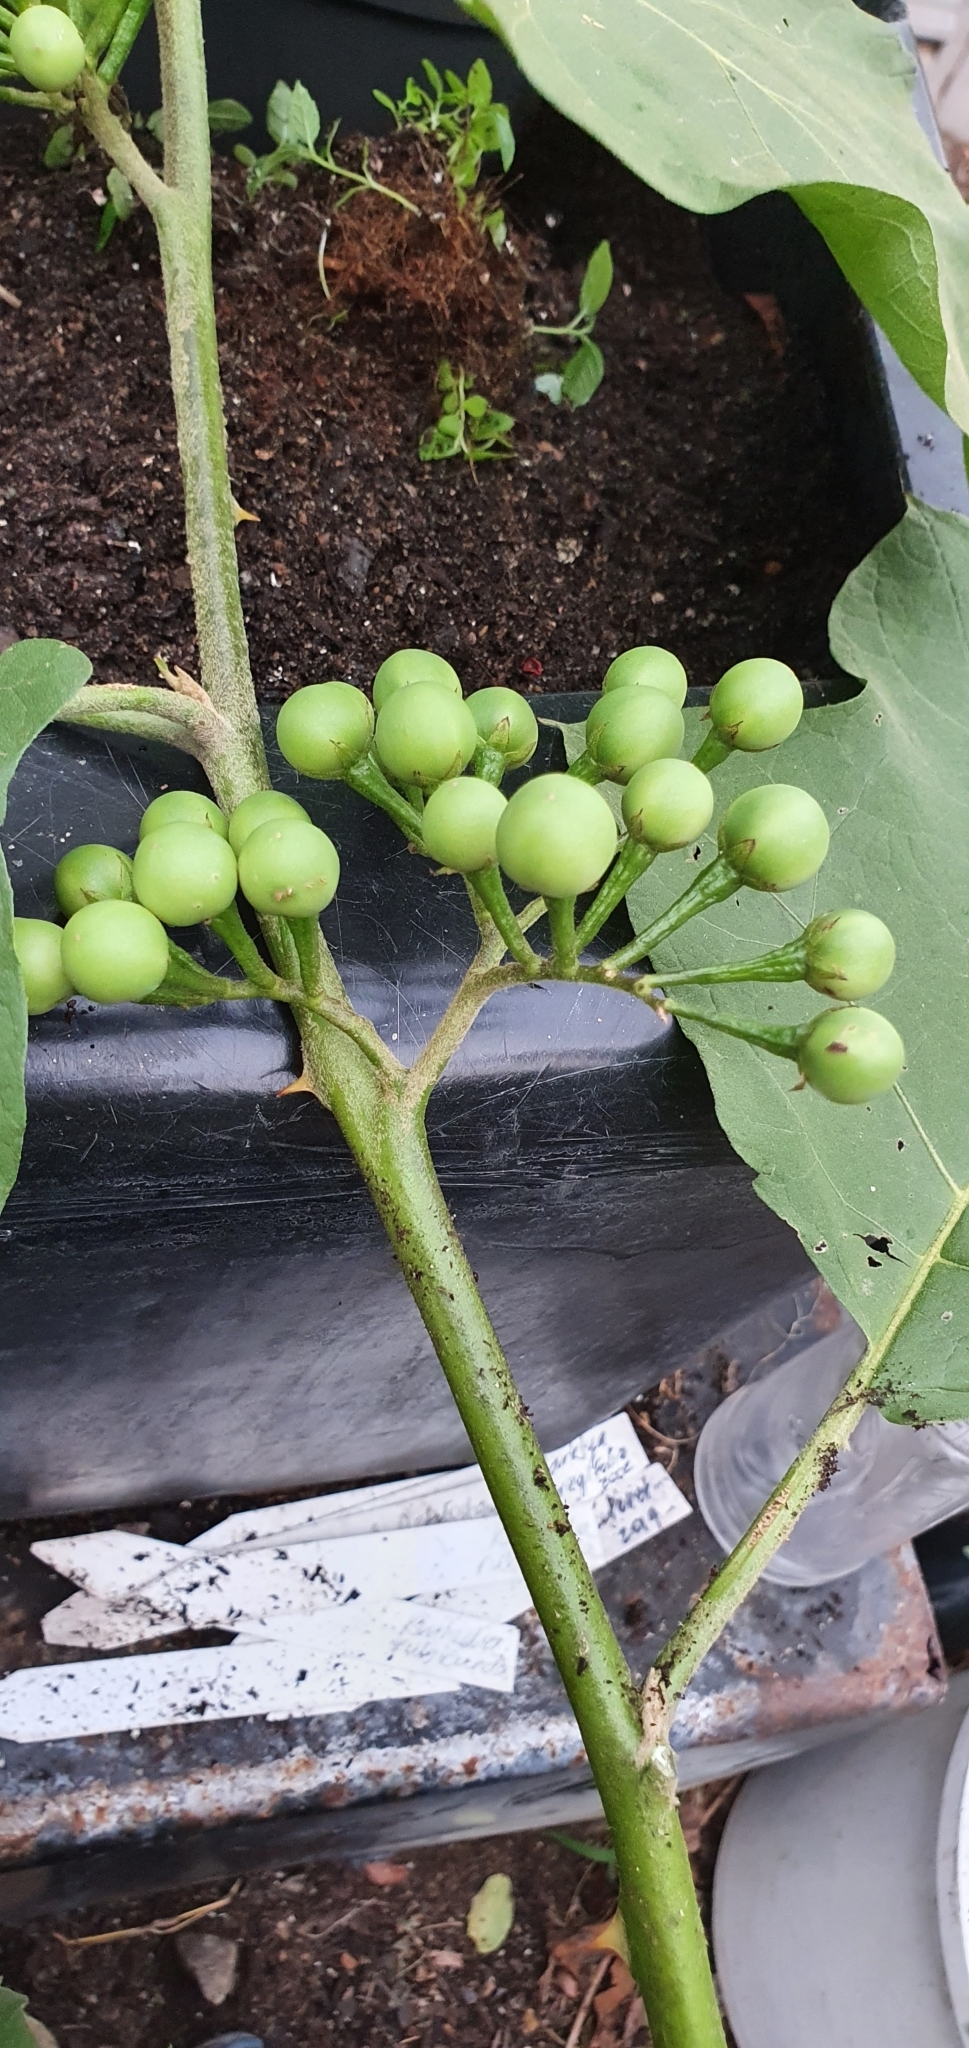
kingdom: Plantae
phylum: Tracheophyta
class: Magnoliopsida
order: Solanales
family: Solanaceae
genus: Solanum
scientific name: Solanum torvum
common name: Turkey berry
